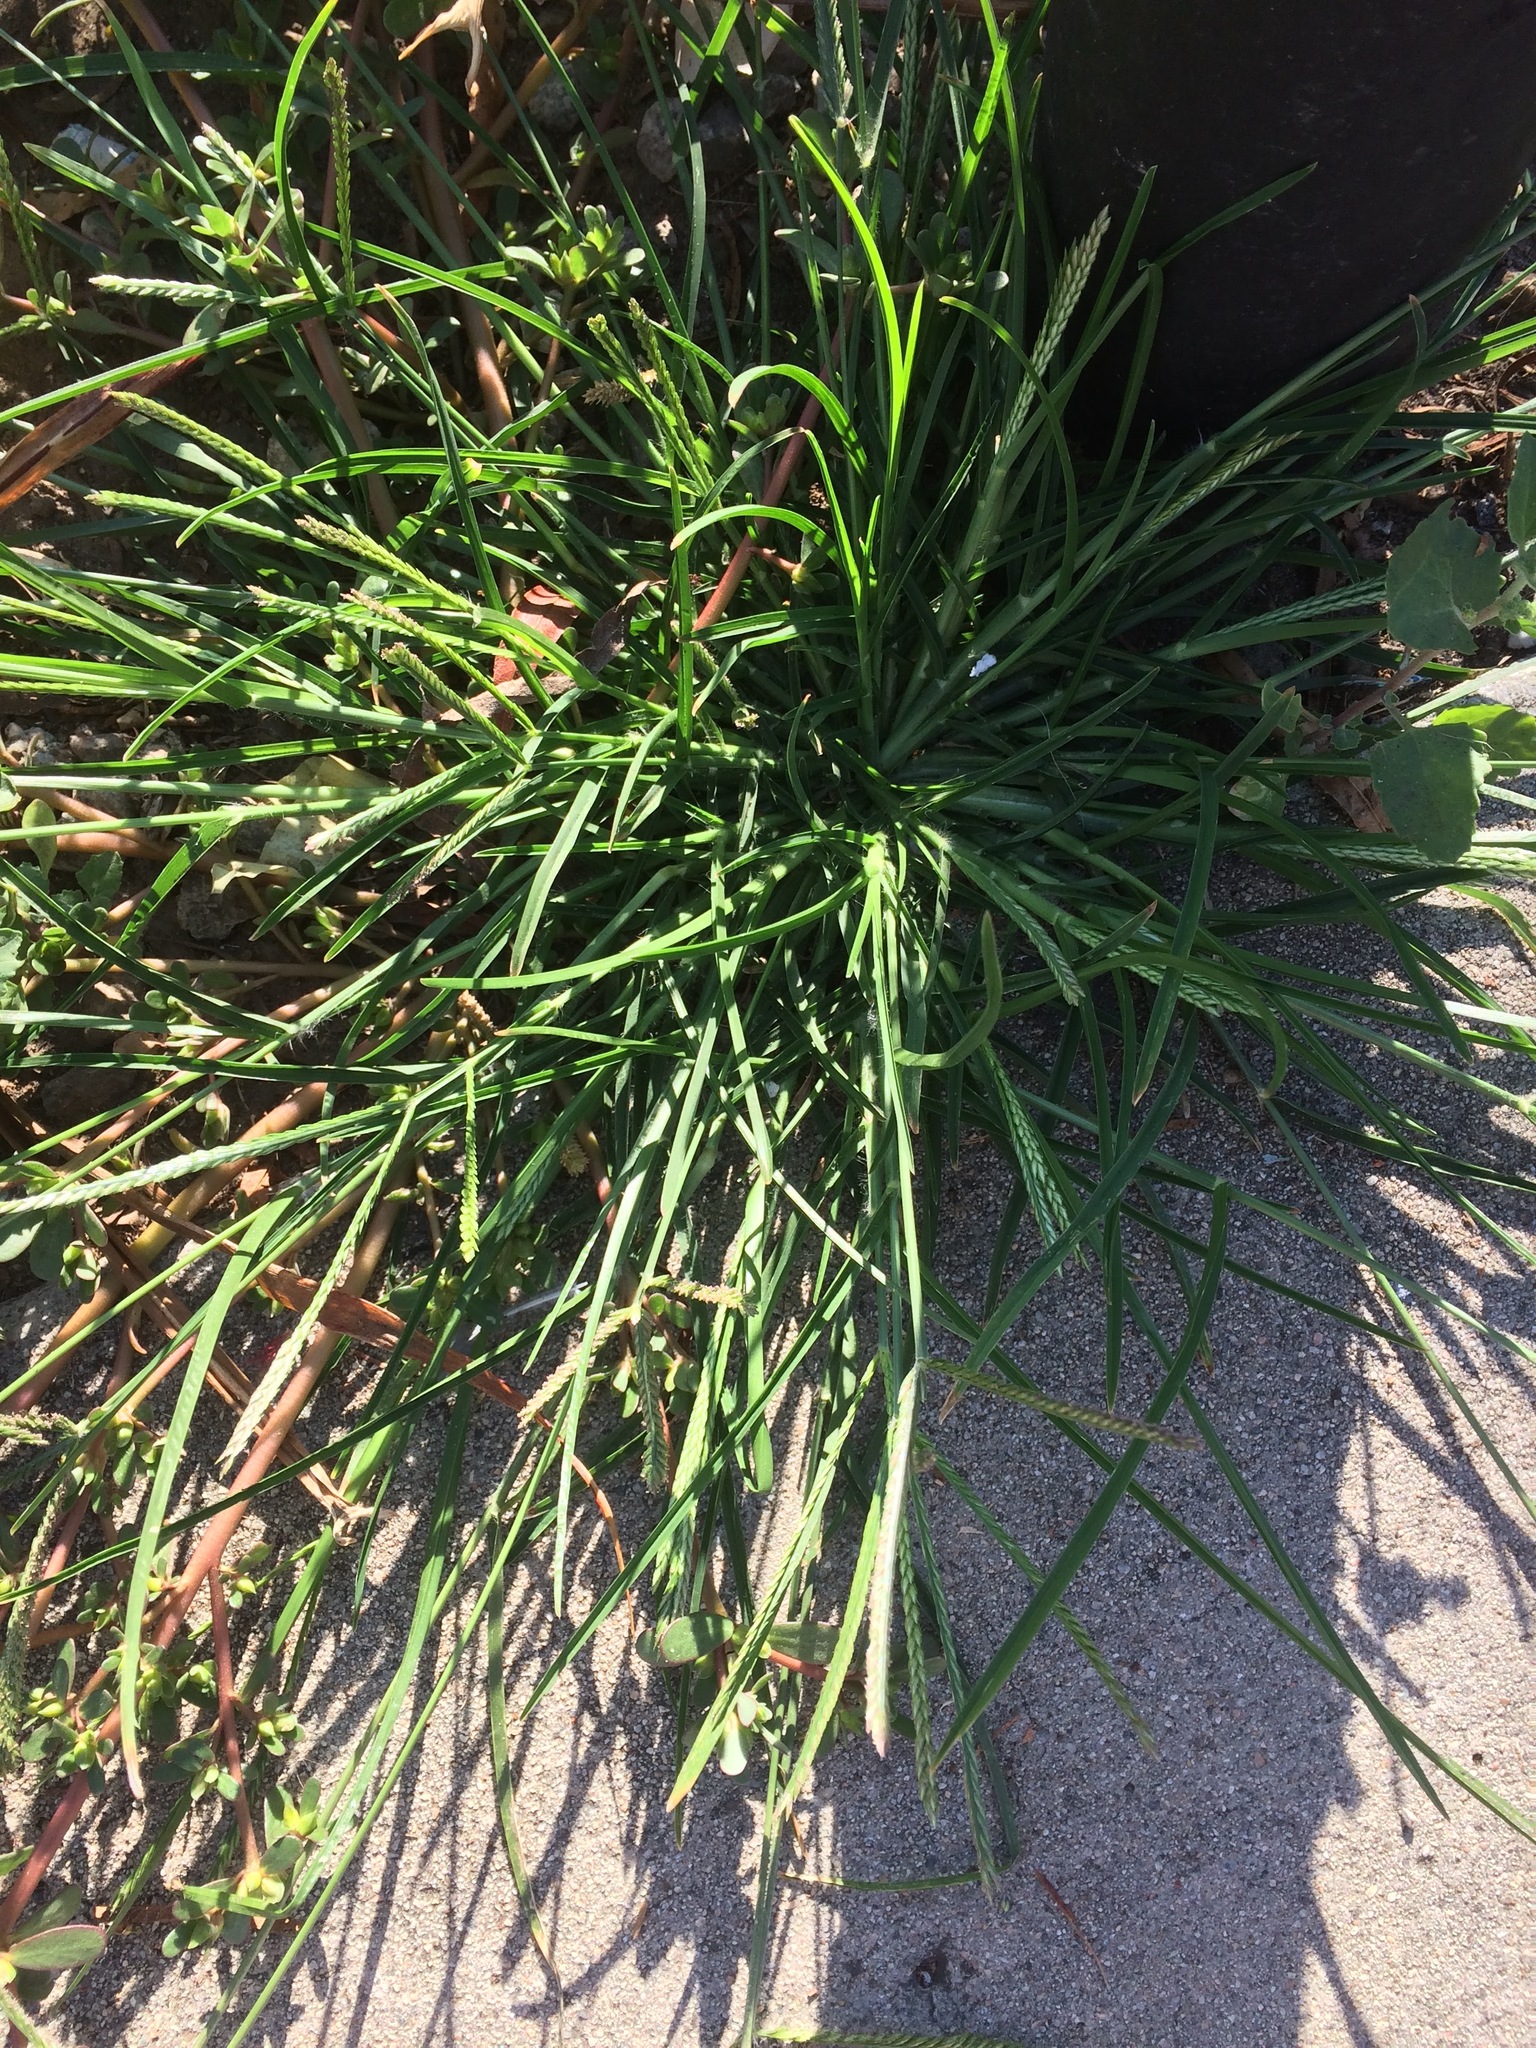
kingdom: Plantae
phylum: Tracheophyta
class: Liliopsida
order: Poales
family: Poaceae
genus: Eleusine
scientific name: Eleusine indica
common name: Yard-grass
